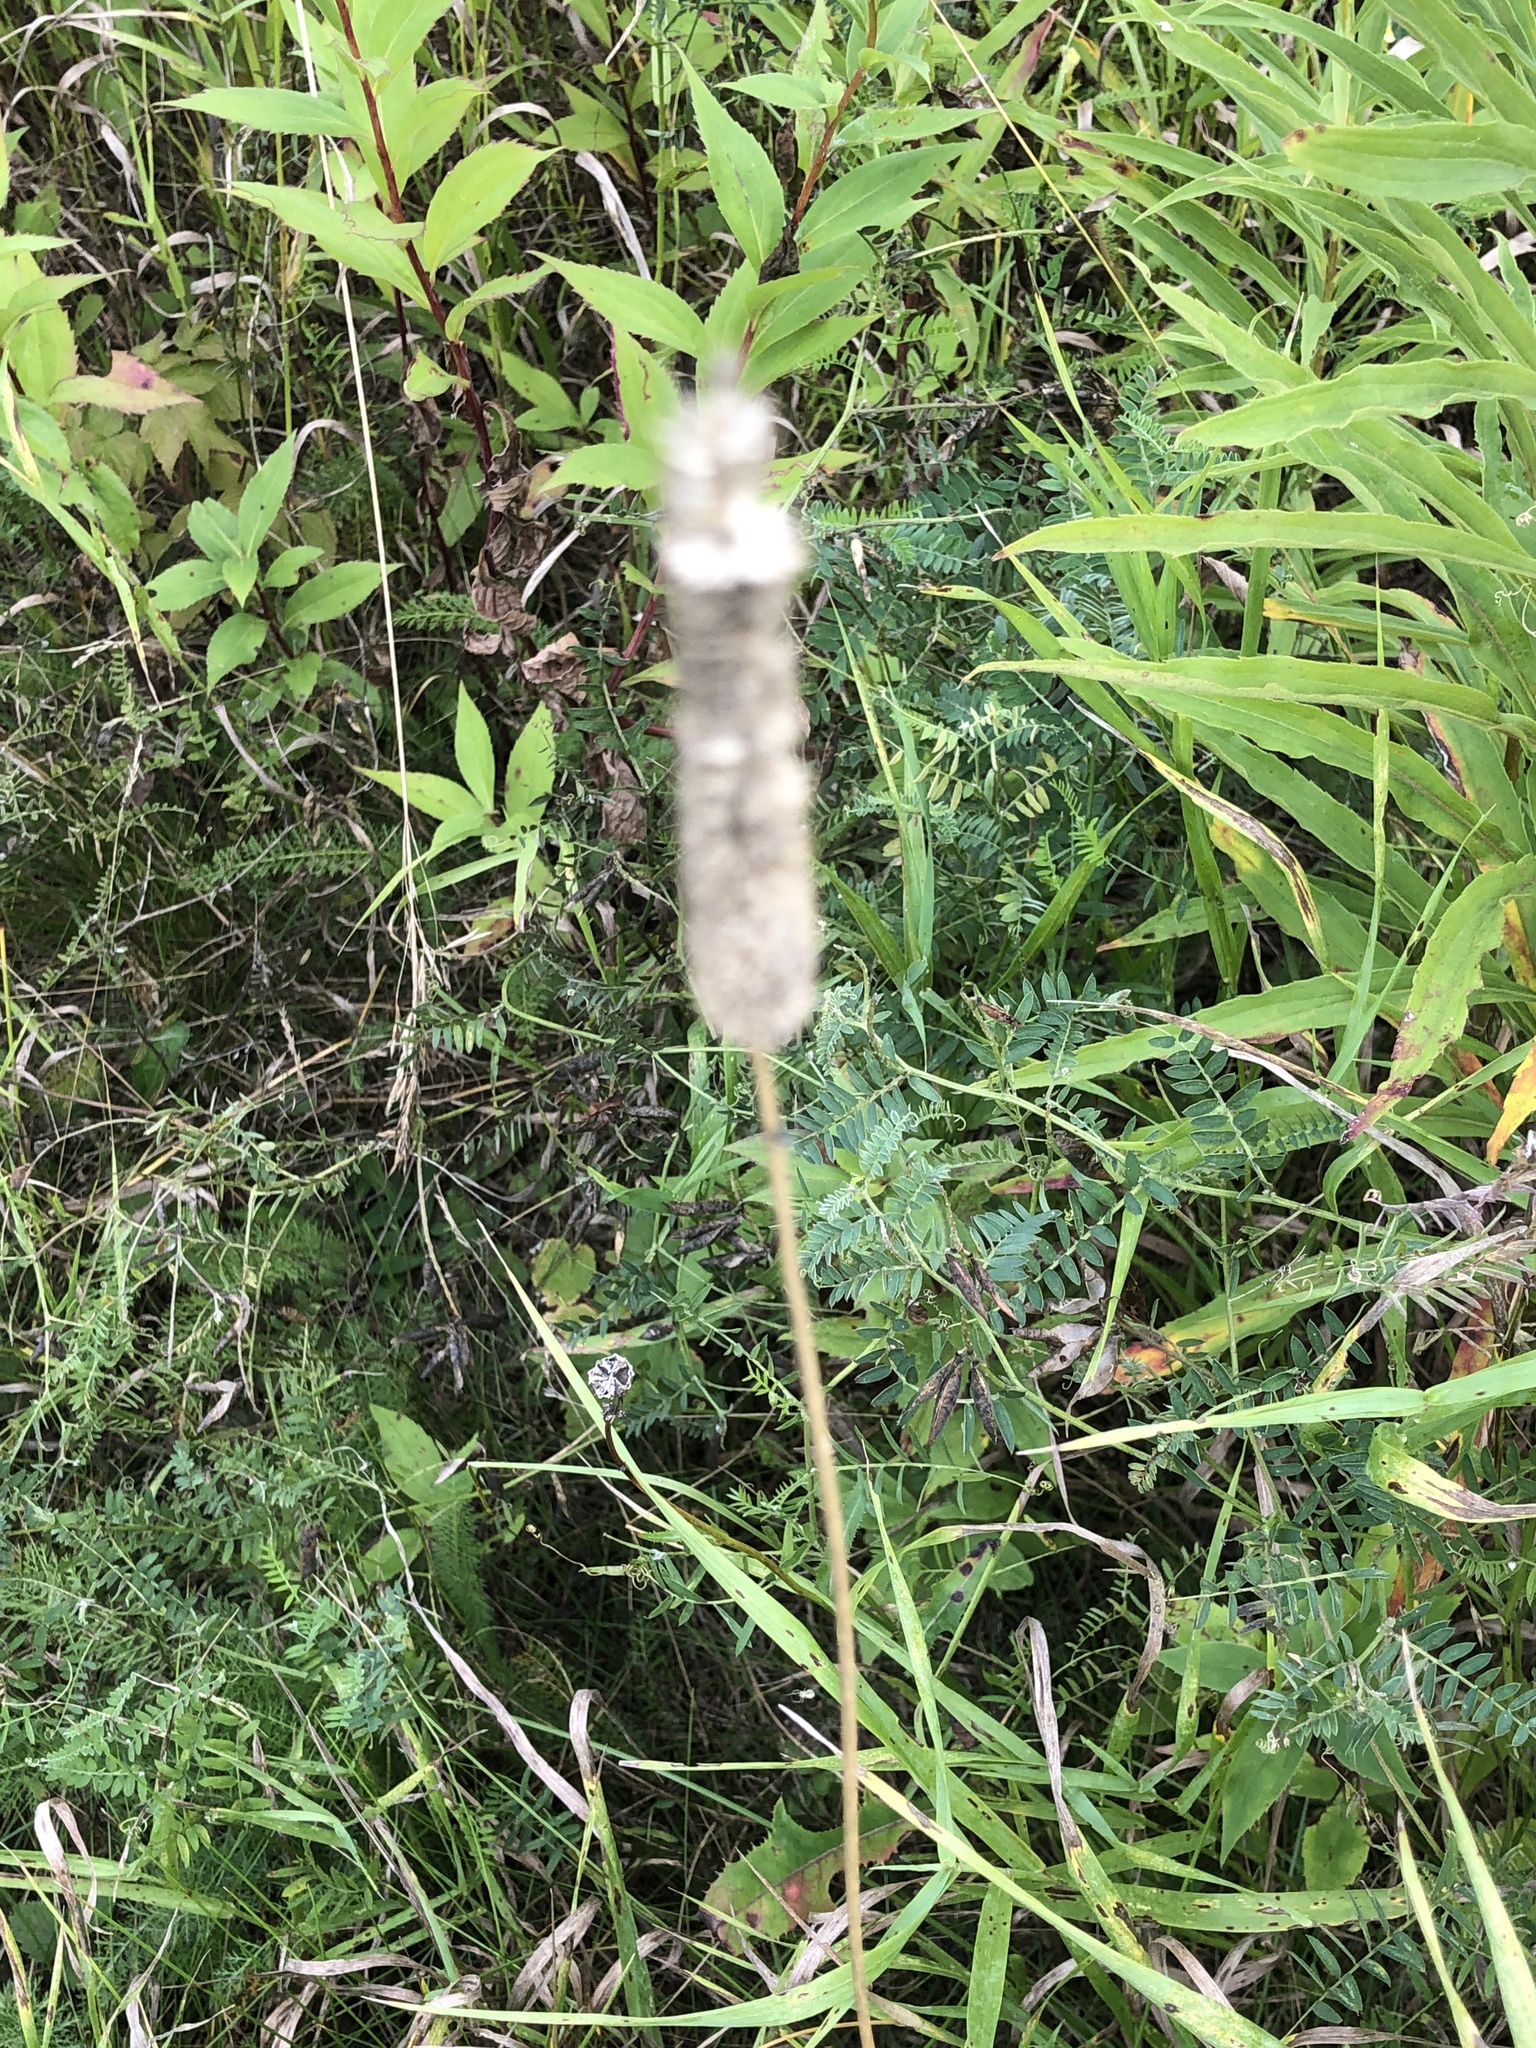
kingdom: Plantae
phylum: Tracheophyta
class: Liliopsida
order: Poales
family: Poaceae
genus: Phleum
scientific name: Phleum pratense
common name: Timothy grass
